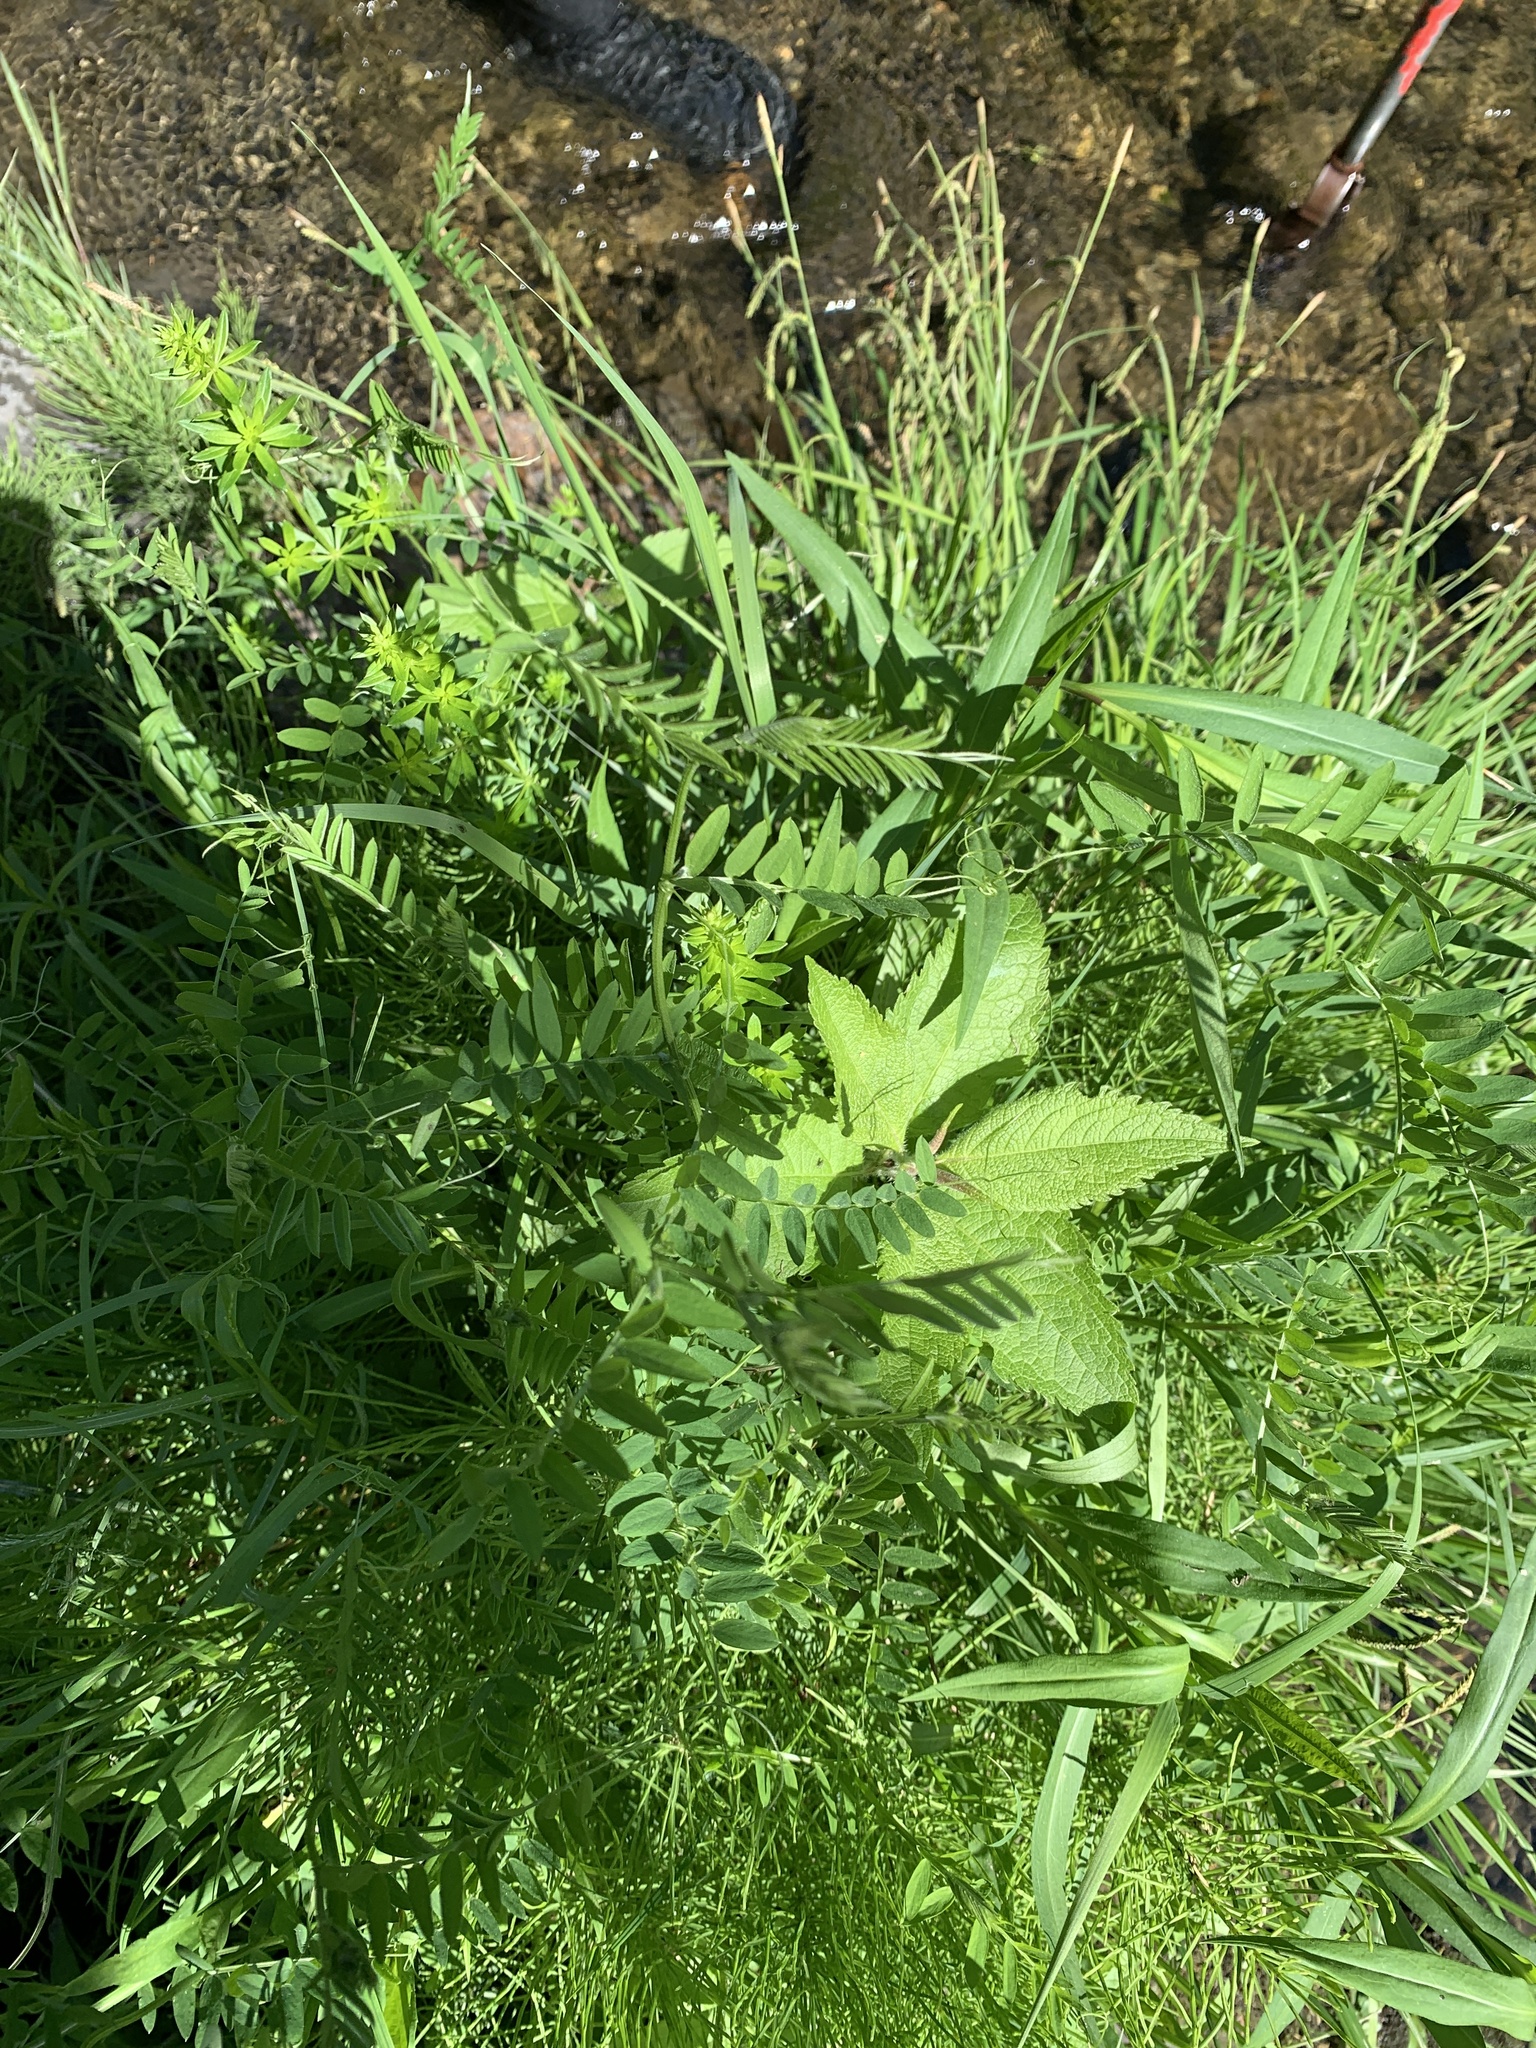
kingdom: Plantae
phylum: Tracheophyta
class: Magnoliopsida
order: Fabales
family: Fabaceae
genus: Vicia
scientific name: Vicia cracca
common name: Bird vetch
